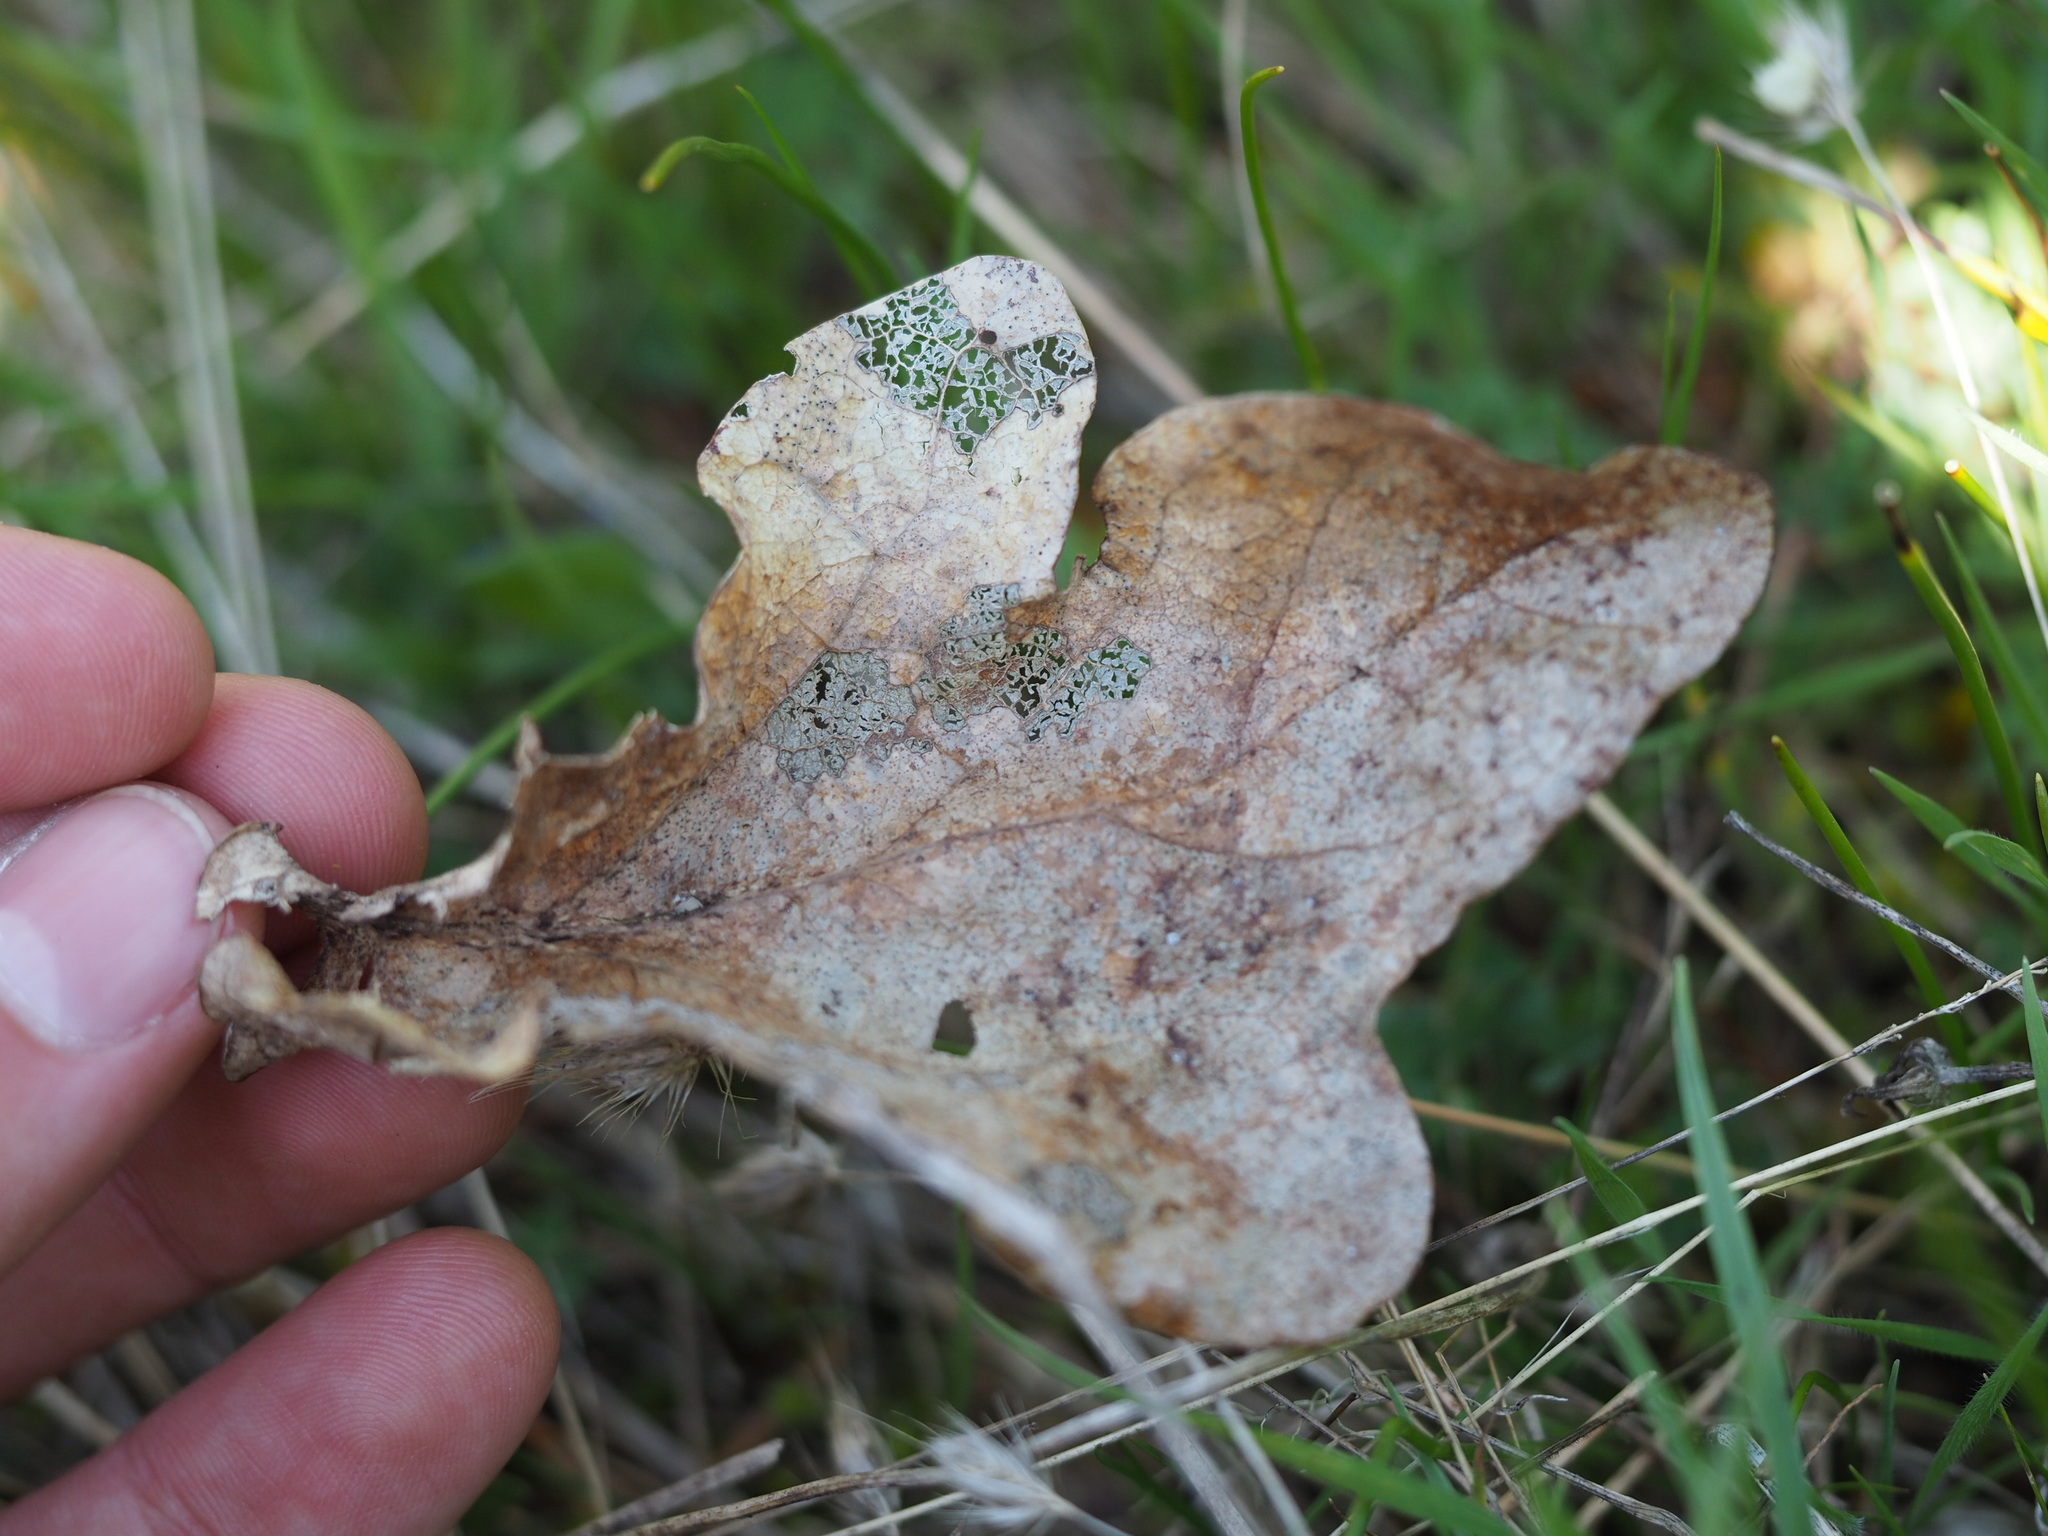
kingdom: Plantae
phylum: Tracheophyta
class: Magnoliopsida
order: Fagales
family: Fagaceae
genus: Quercus
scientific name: Quercus garryana
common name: Garry oak
